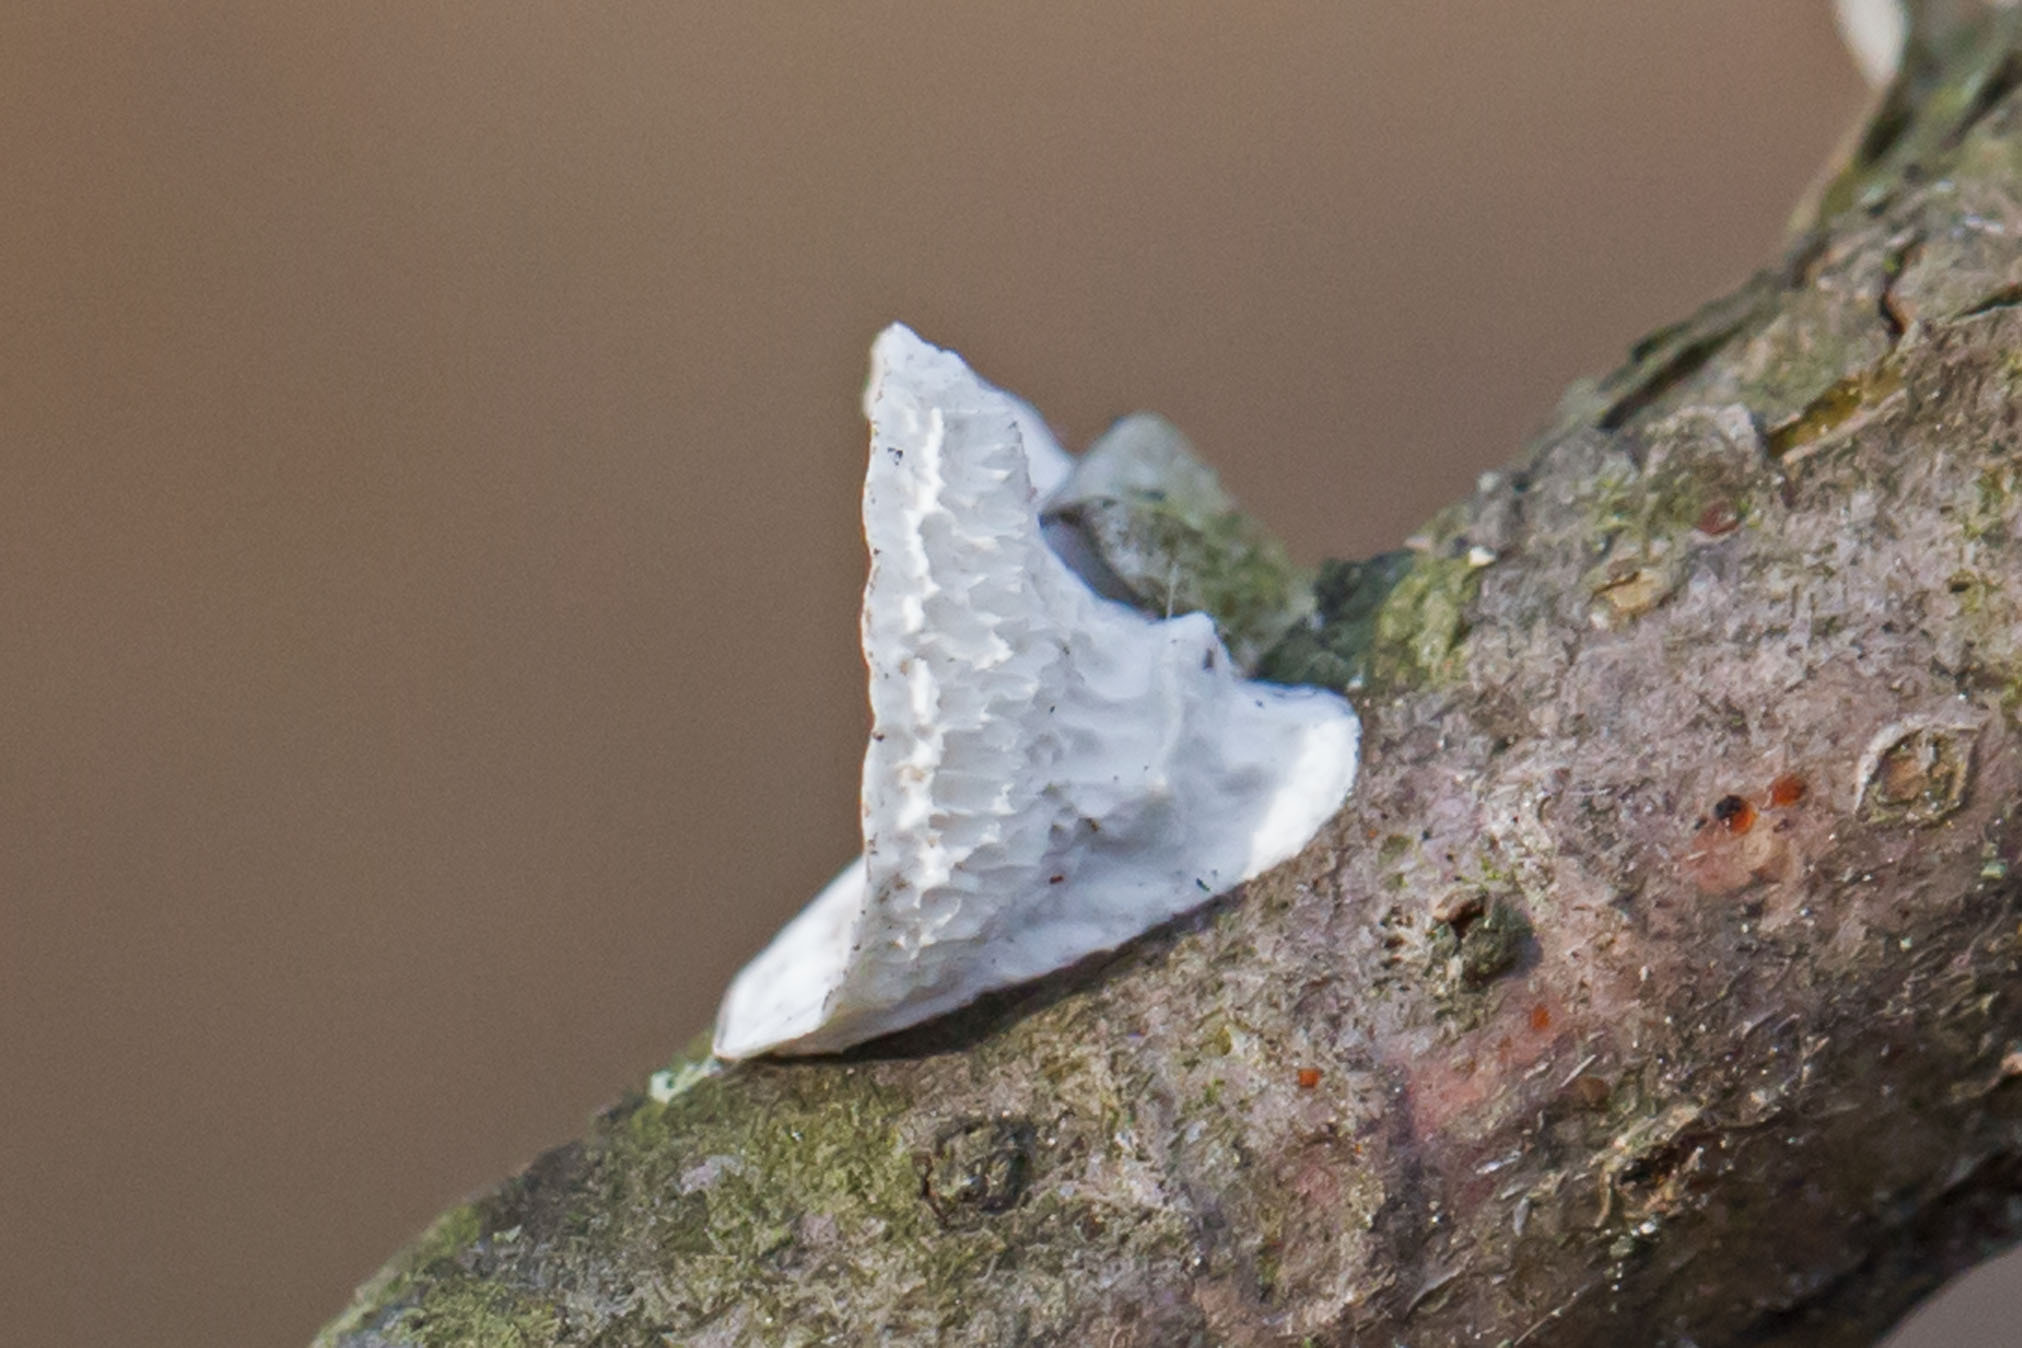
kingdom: Fungi
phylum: Basidiomycota
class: Agaricomycetes
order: Polyporales
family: Polyporaceae
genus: Poronidulus
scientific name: Poronidulus conchifer
